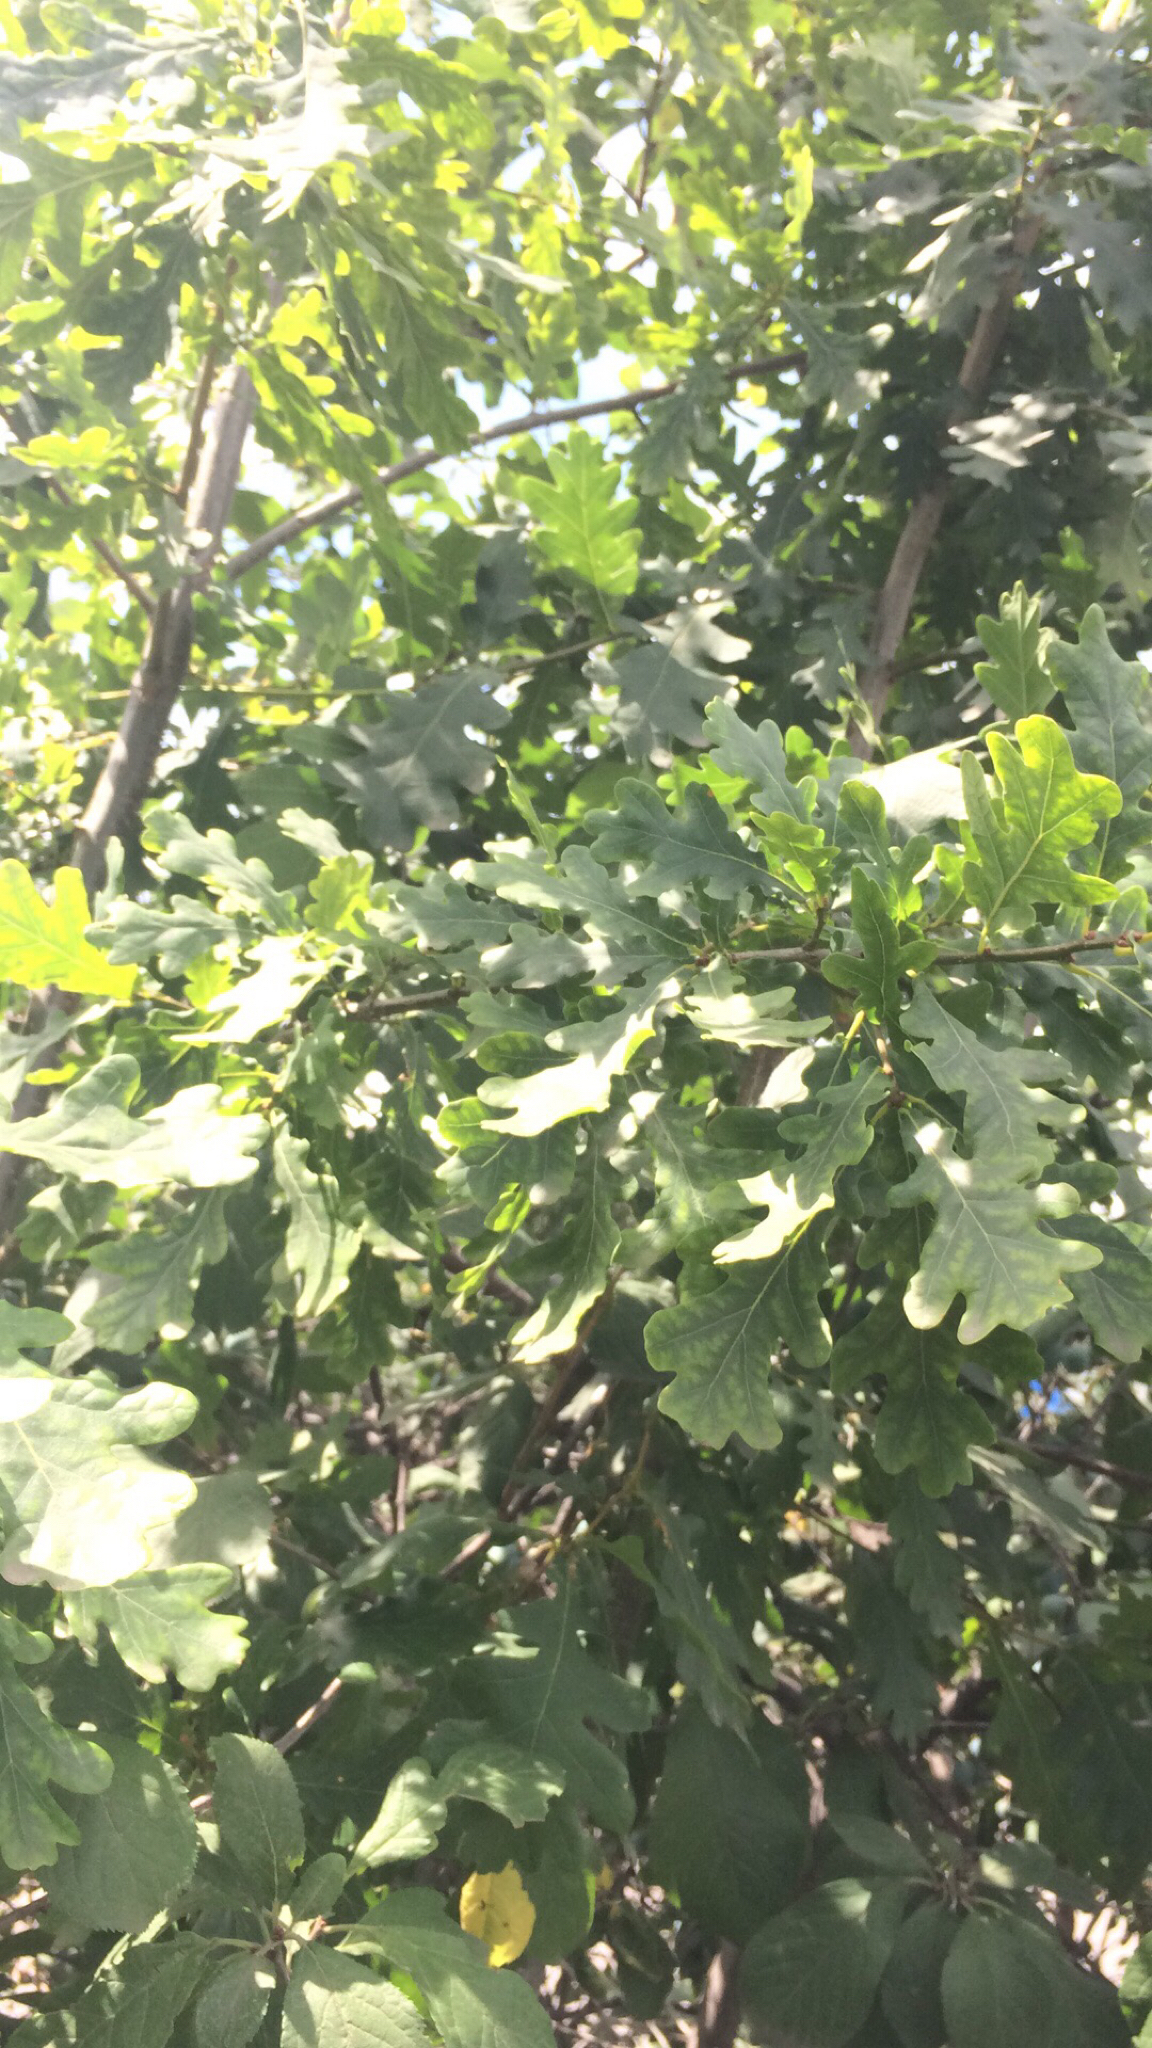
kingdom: Plantae
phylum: Tracheophyta
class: Magnoliopsida
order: Fagales
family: Fagaceae
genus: Quercus
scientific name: Quercus robur
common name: Pedunculate oak
